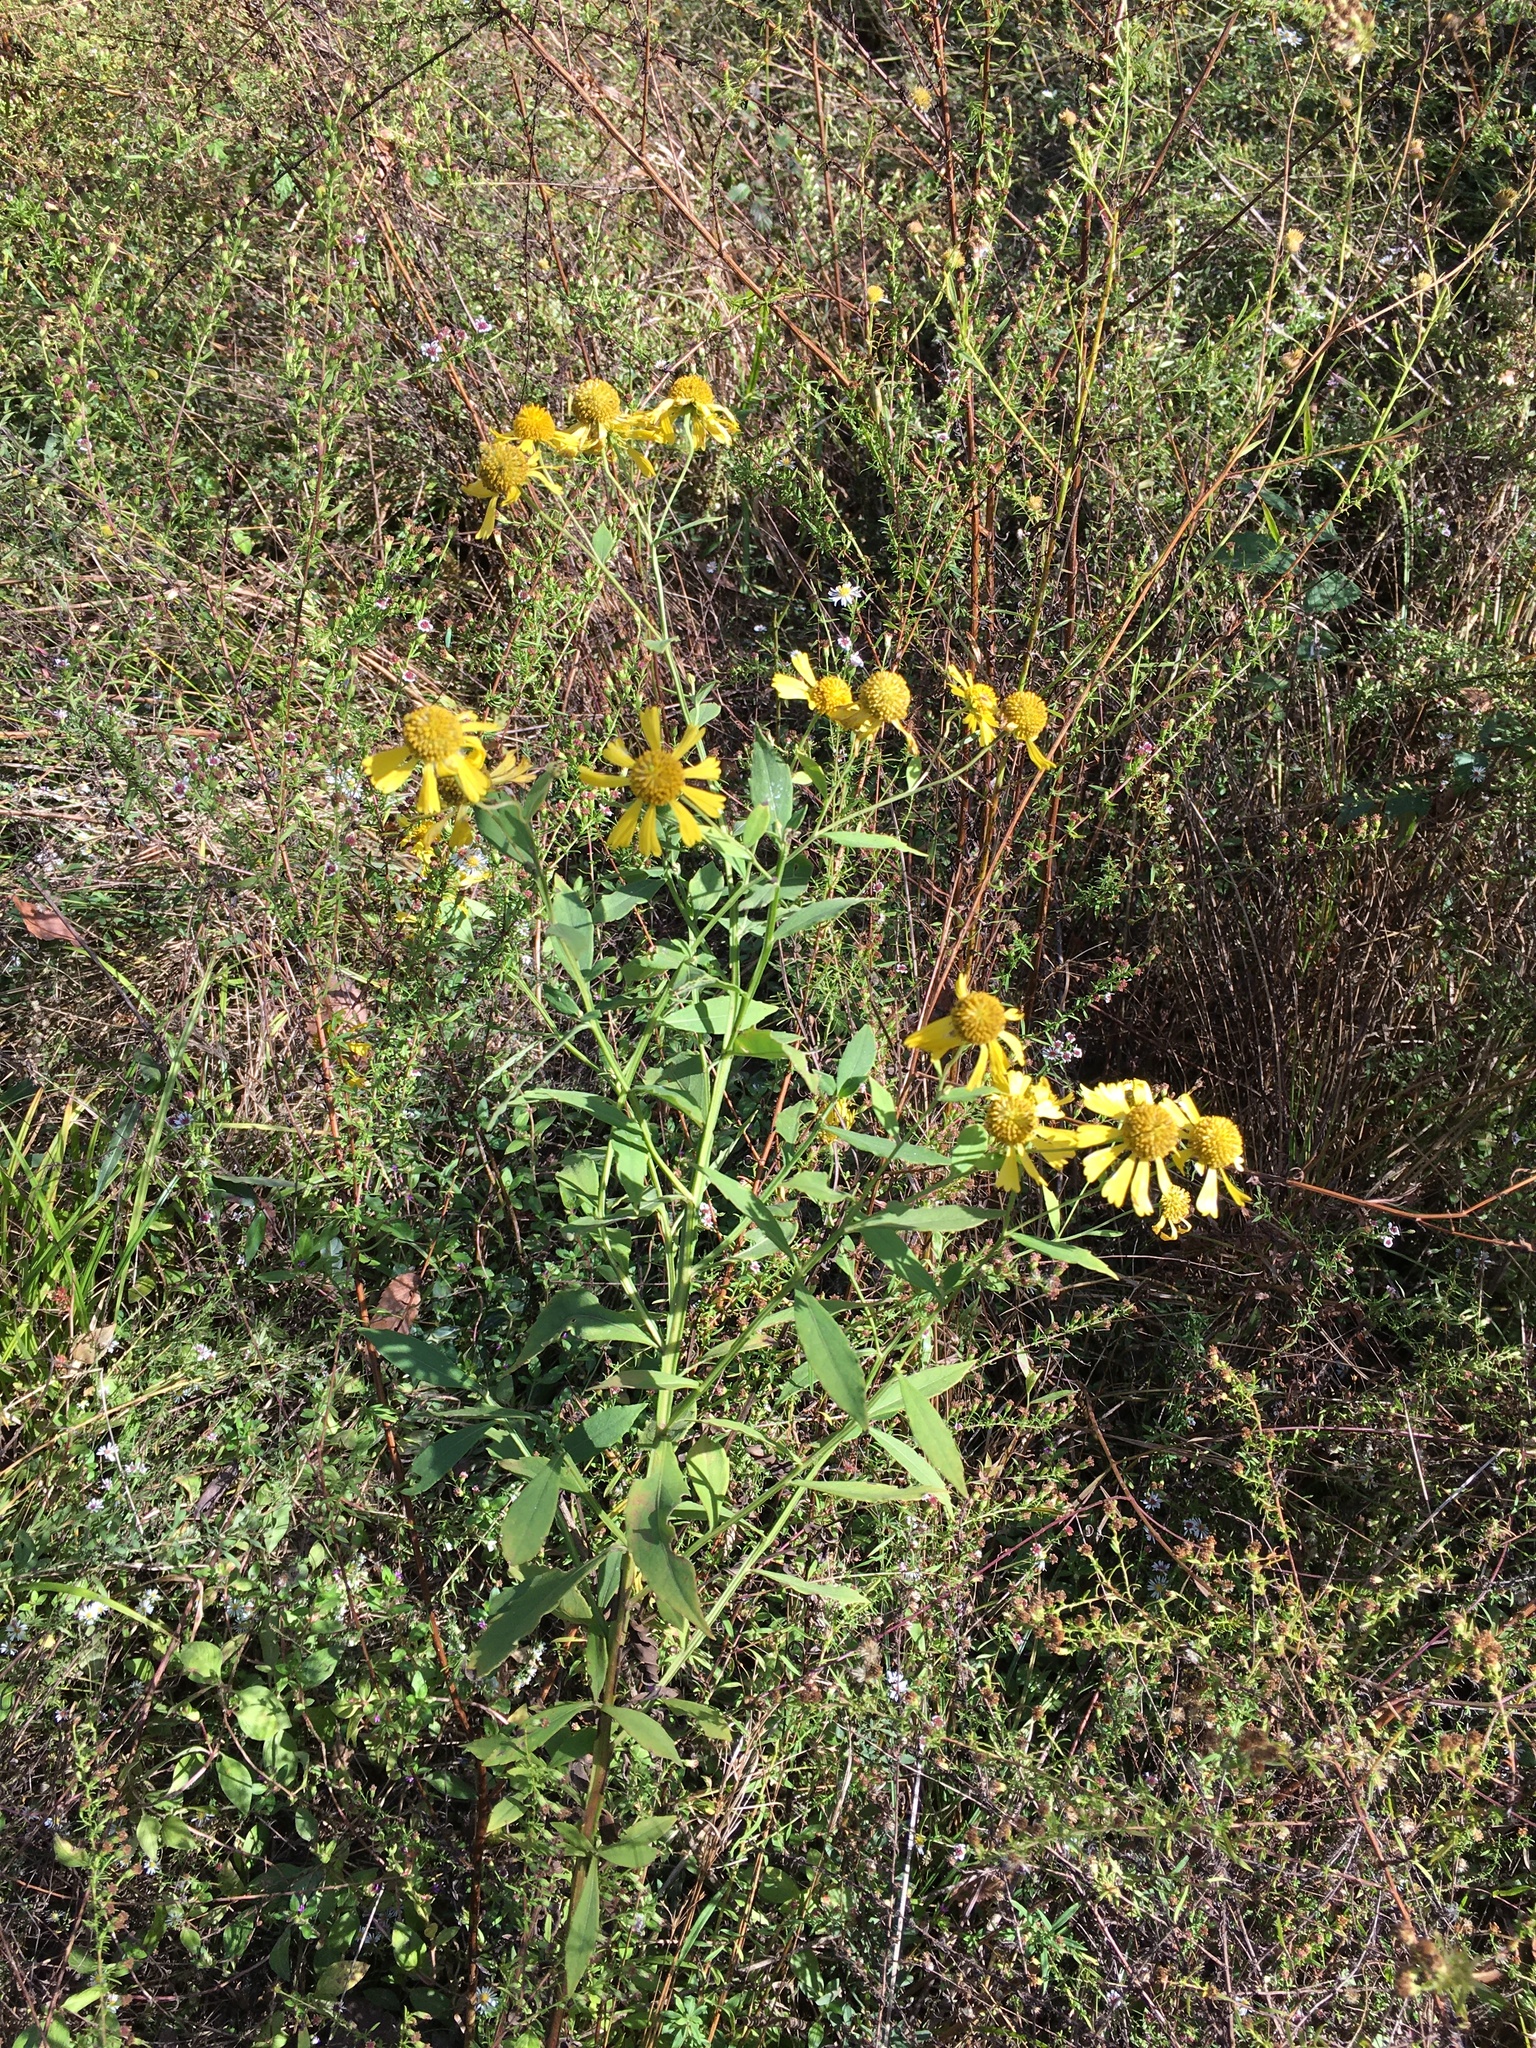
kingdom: Plantae
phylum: Tracheophyta
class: Magnoliopsida
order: Asterales
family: Asteraceae
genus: Helenium
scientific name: Helenium autumnale
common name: Sneezeweed
